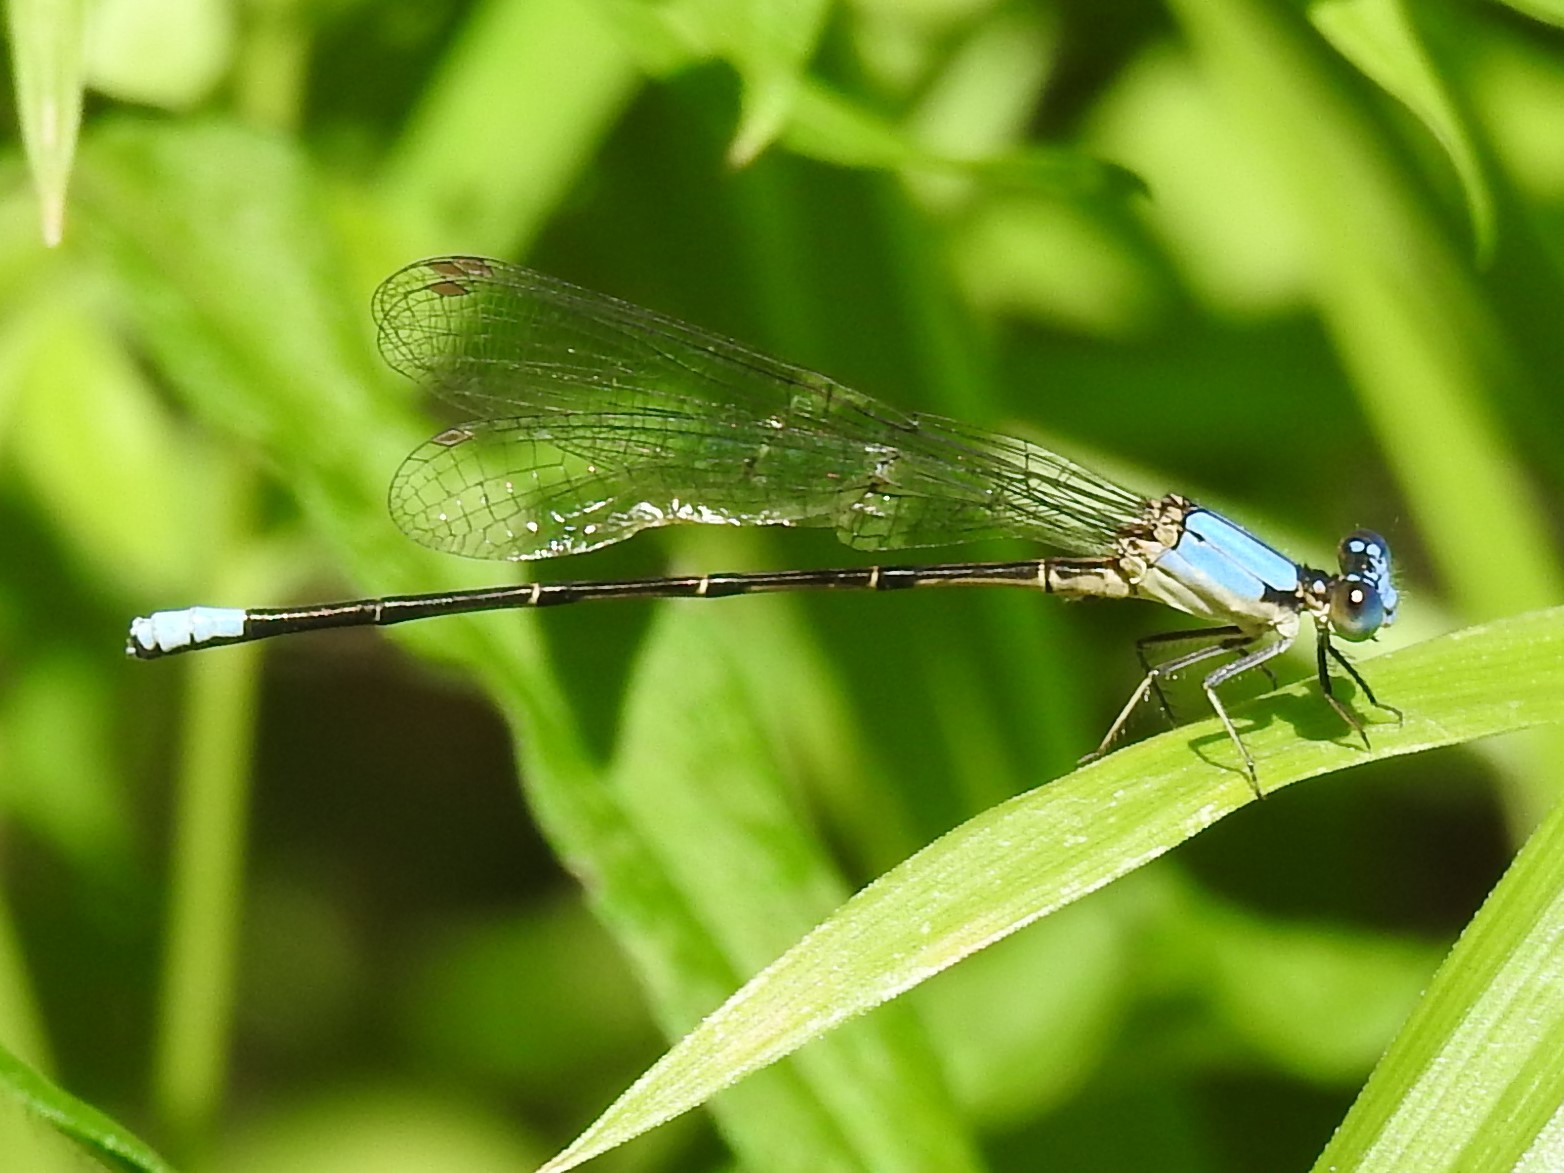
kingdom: Animalia
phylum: Arthropoda
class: Insecta
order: Odonata
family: Coenagrionidae
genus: Argia
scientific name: Argia apicalis
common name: Blue-fronted dancer
